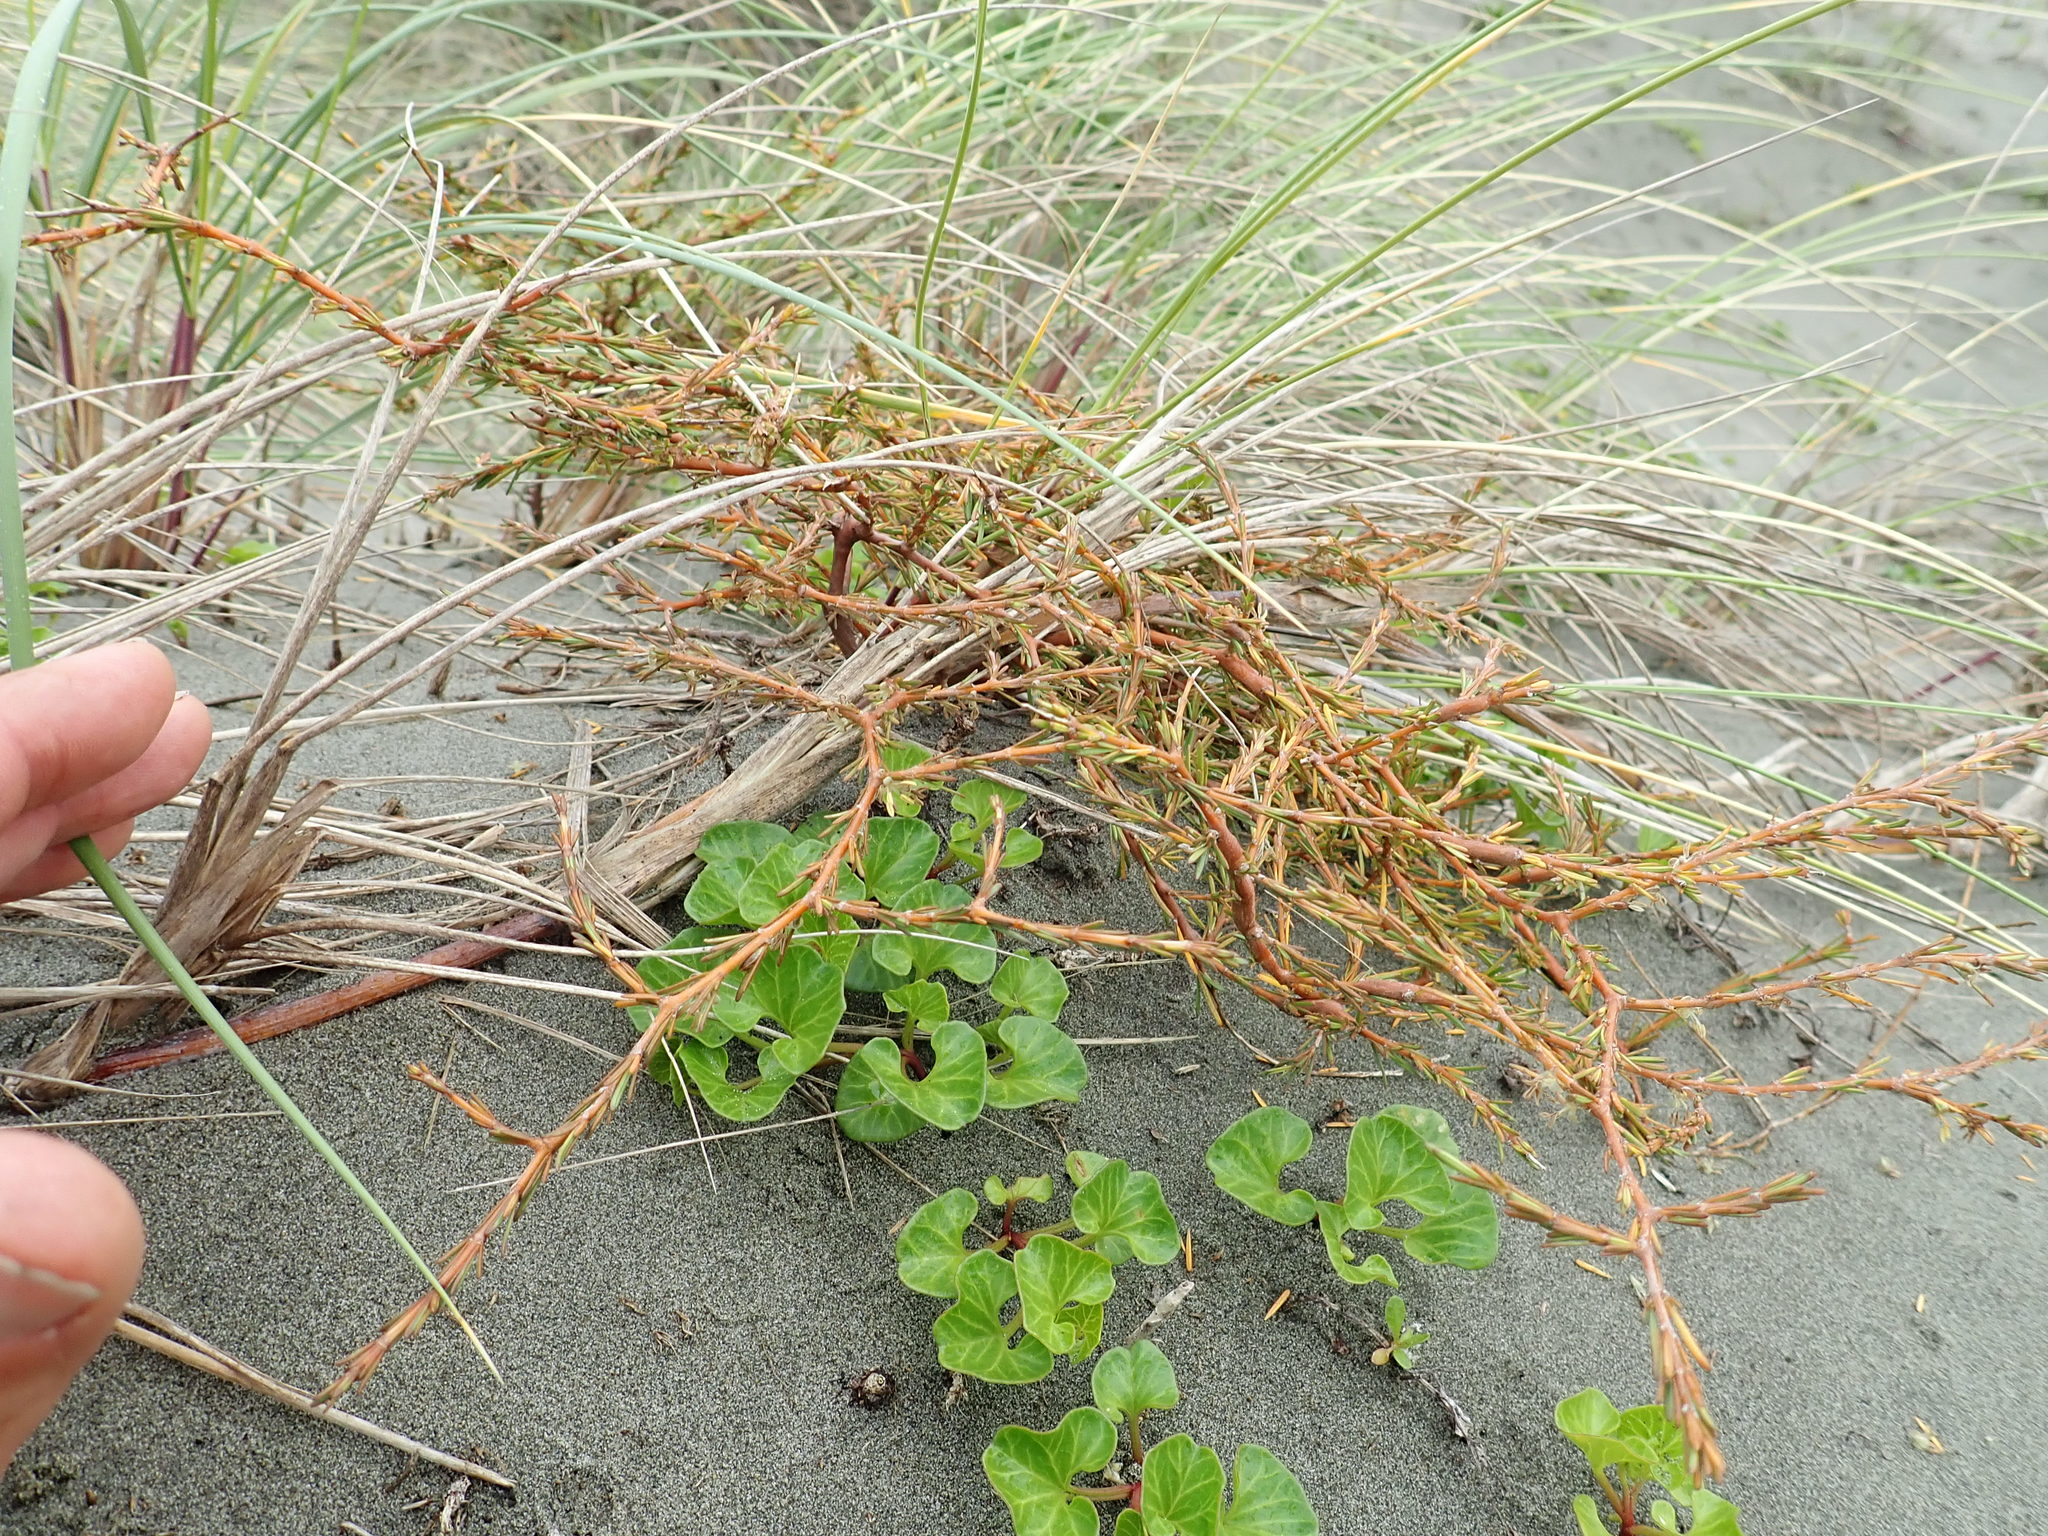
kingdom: Plantae
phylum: Tracheophyta
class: Magnoliopsida
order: Gentianales
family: Rubiaceae
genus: Coprosma
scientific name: Coprosma acerosa
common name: Sand coprosma
